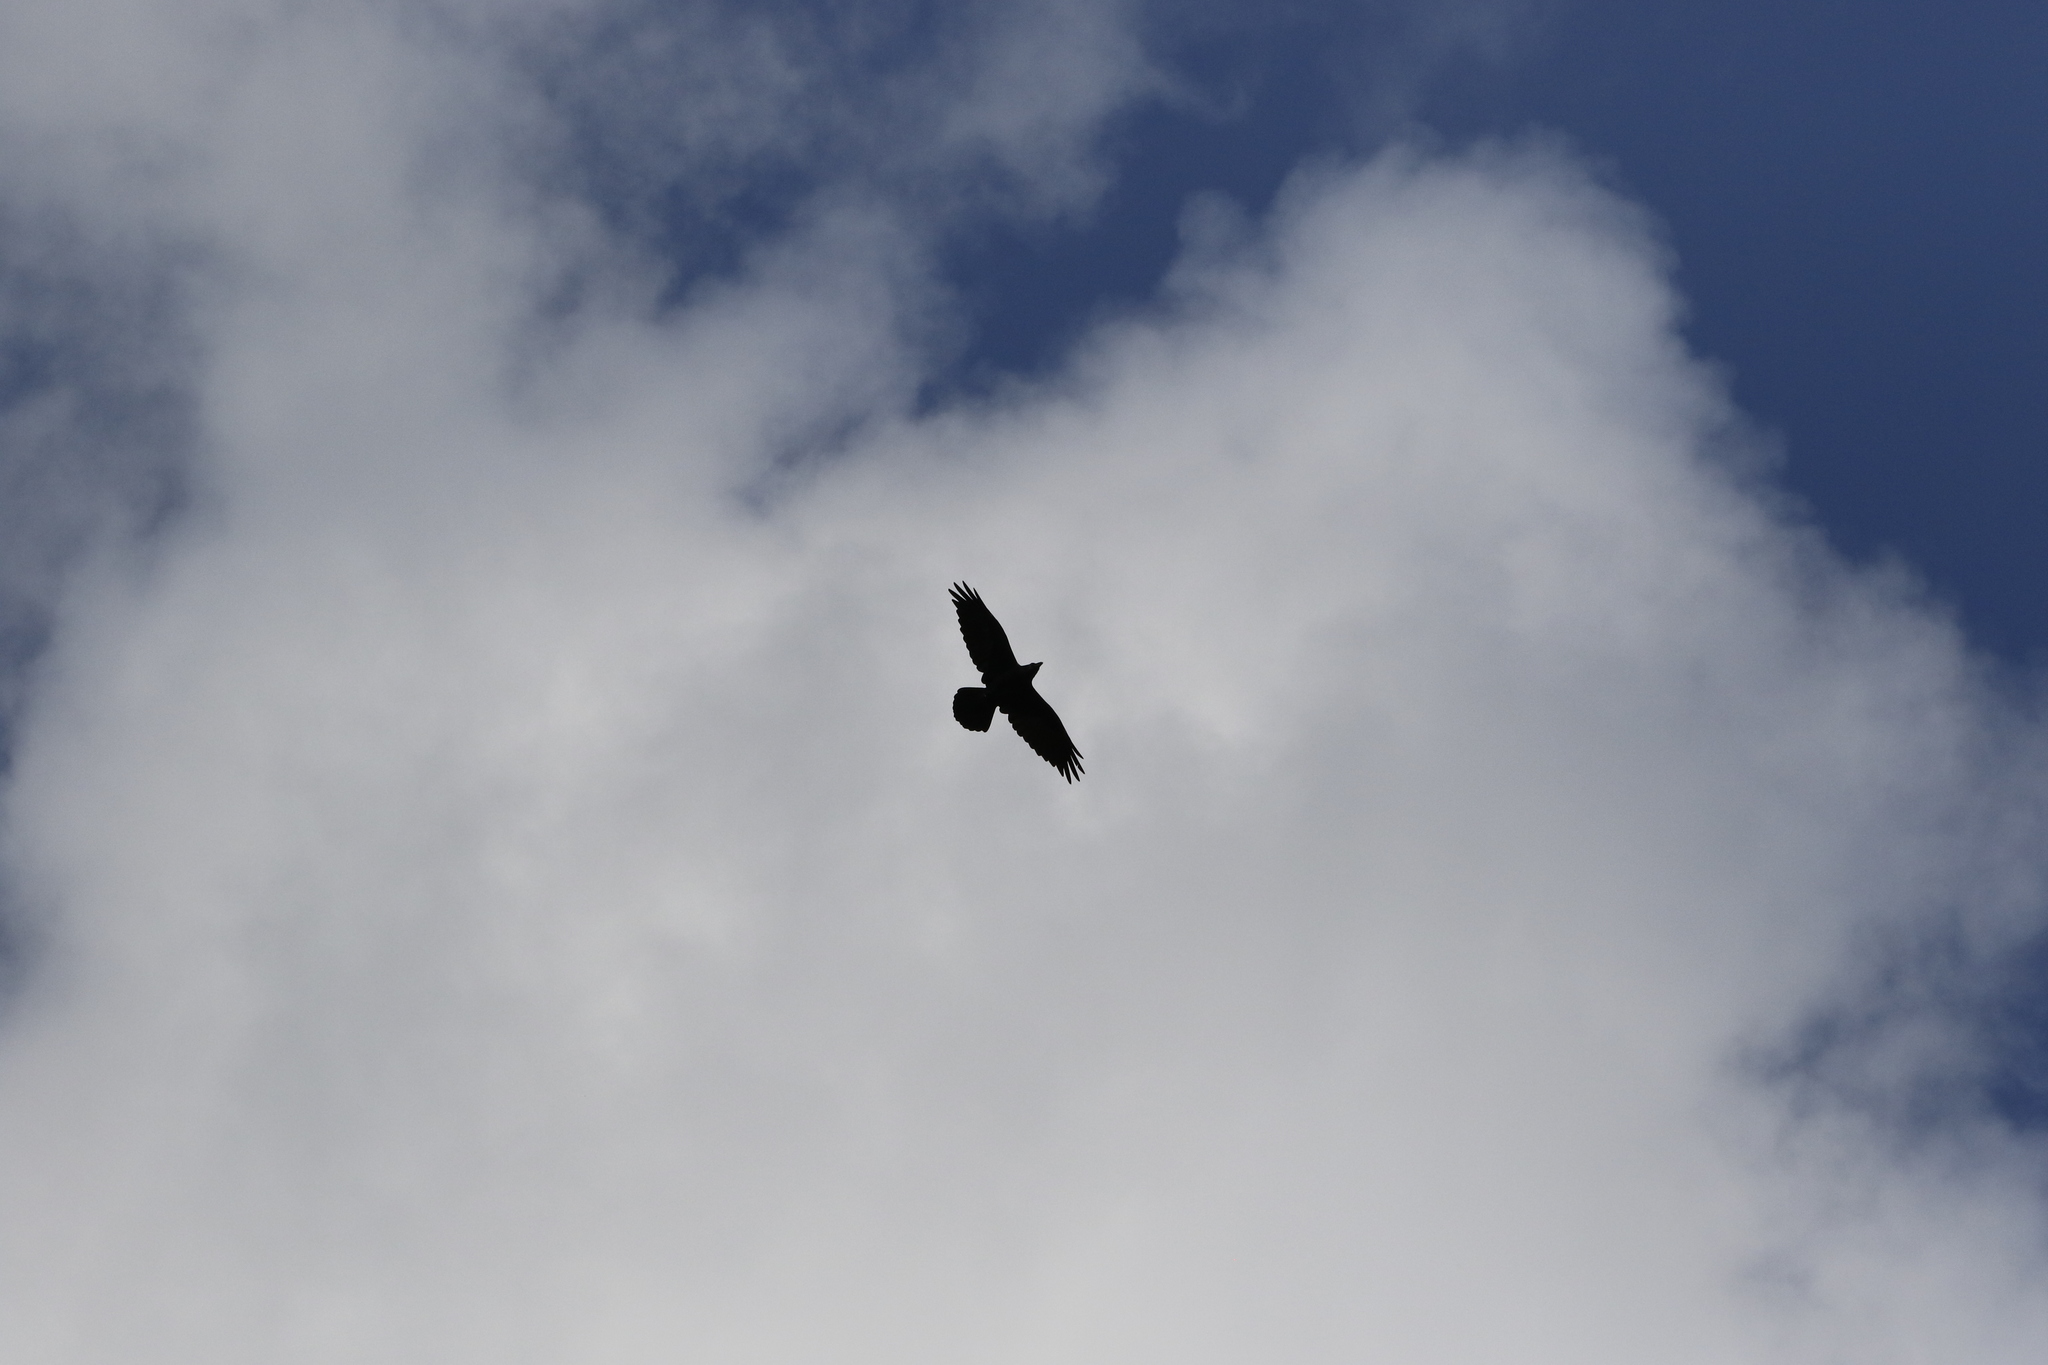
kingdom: Animalia
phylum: Chordata
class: Aves
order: Passeriformes
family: Corvidae
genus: Corvus
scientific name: Corvus corax
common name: Common raven
